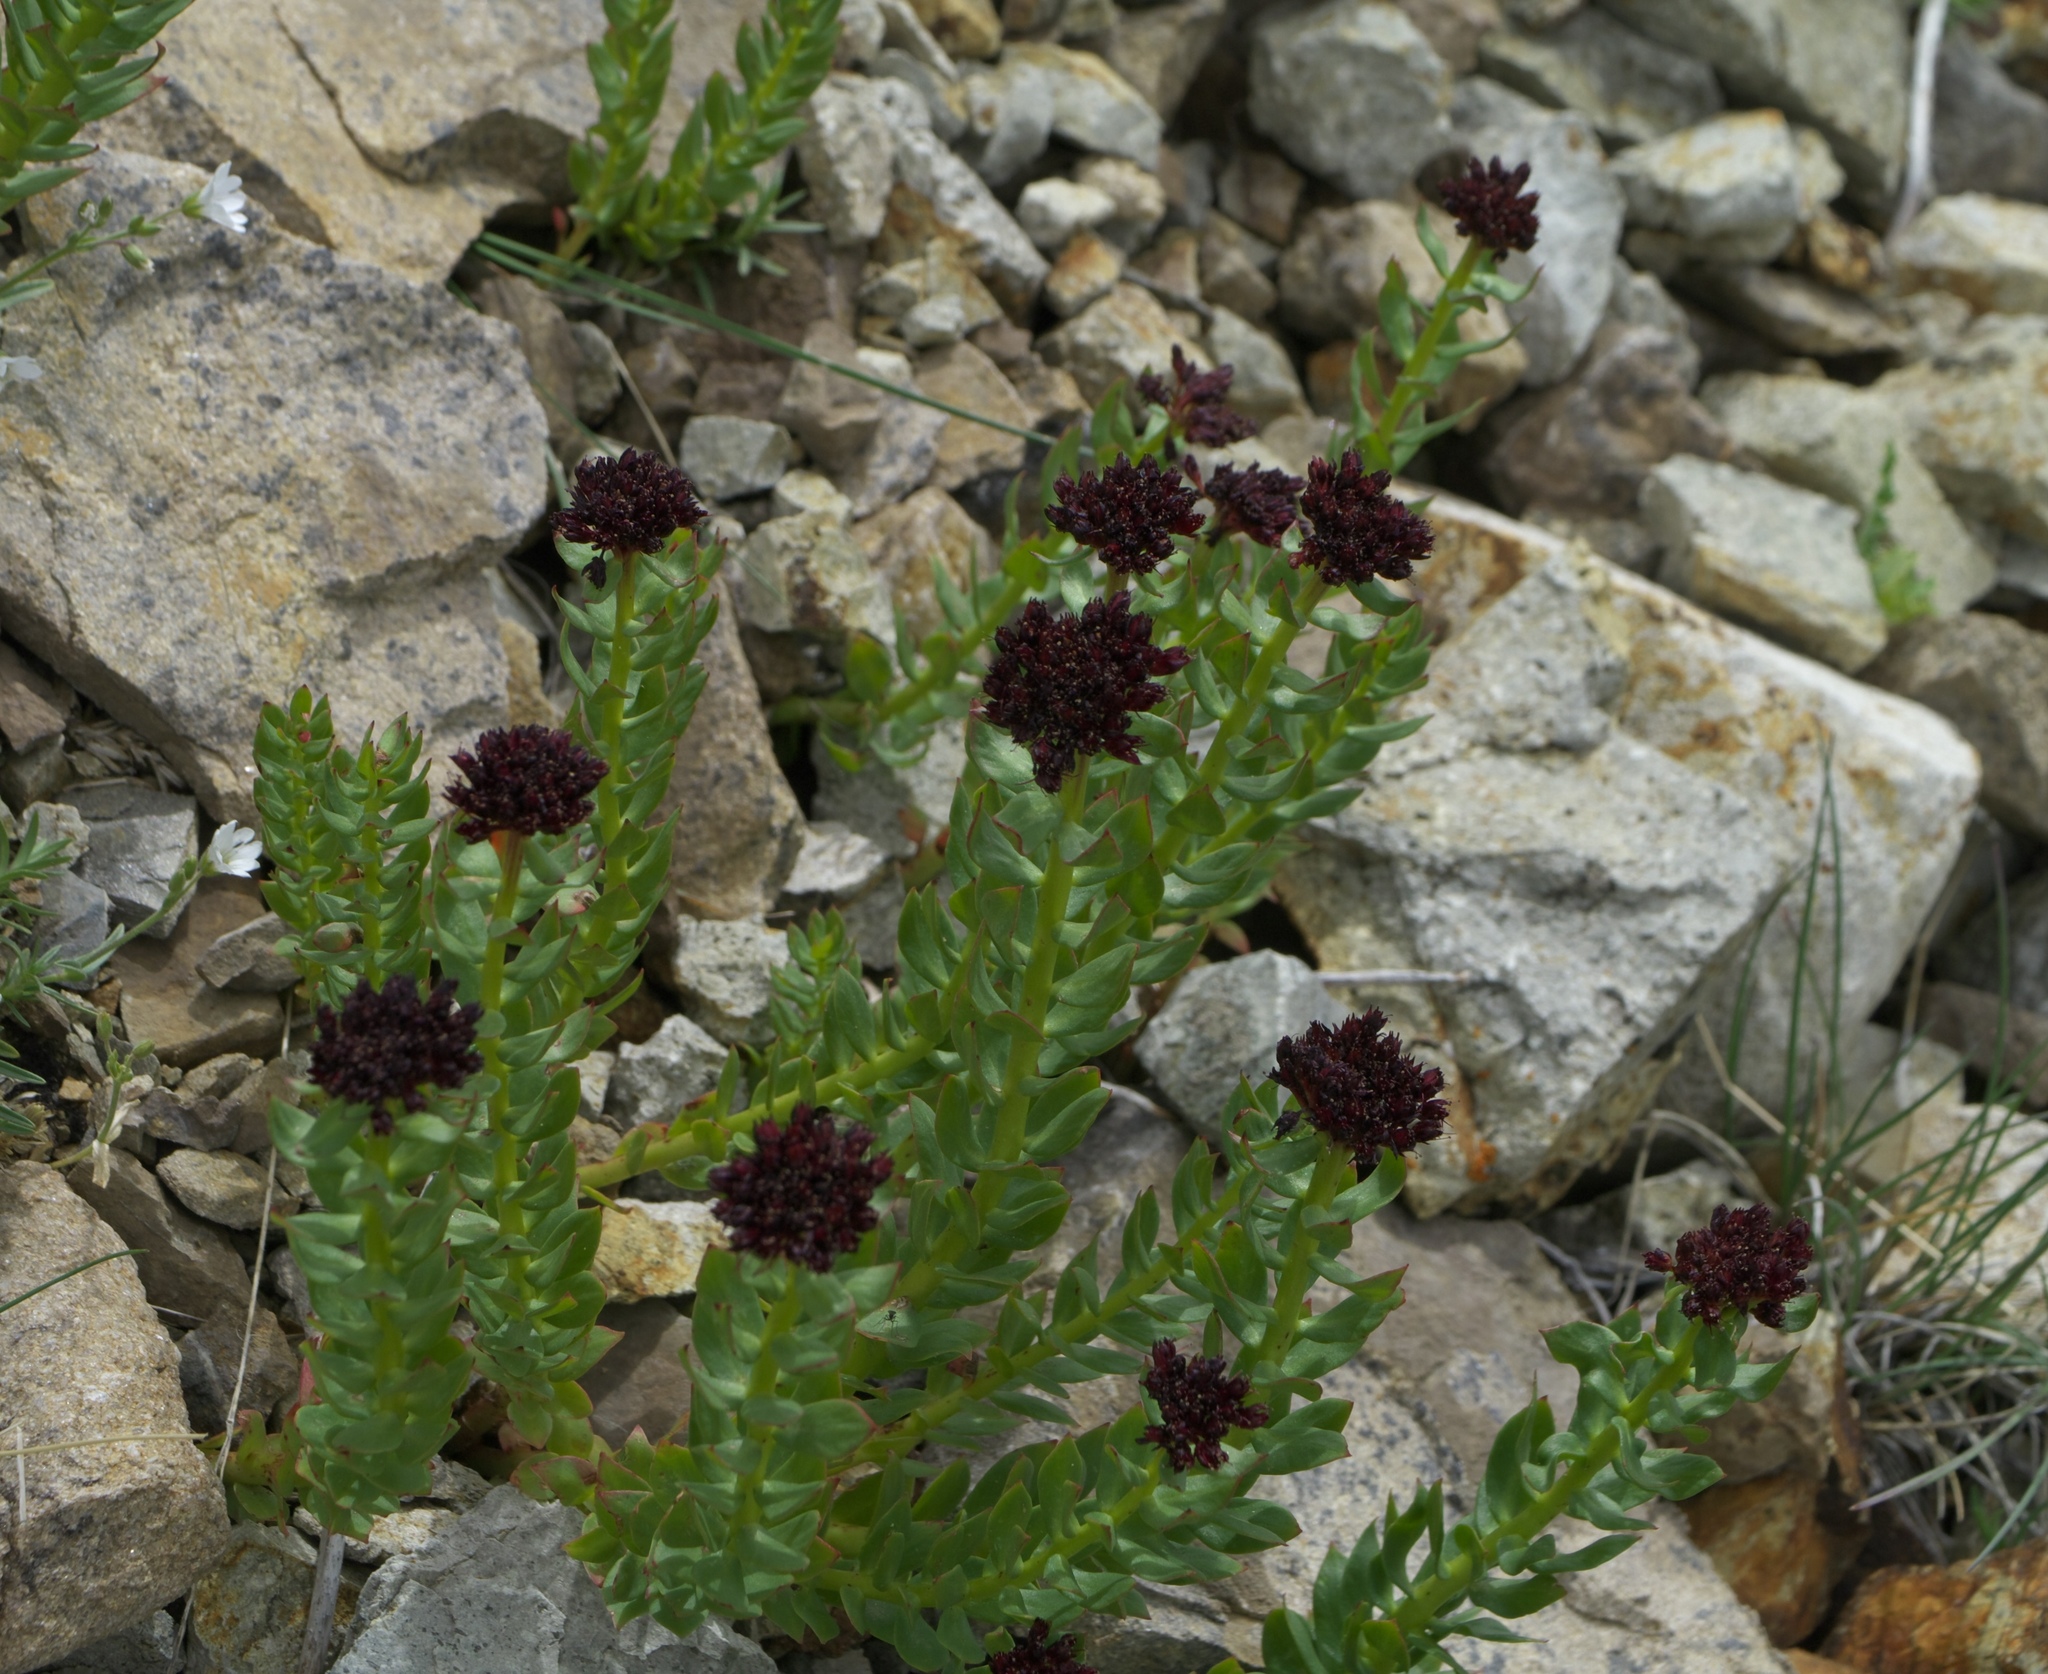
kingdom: Plantae
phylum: Tracheophyta
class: Magnoliopsida
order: Saxifragales
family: Crassulaceae
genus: Rhodiola
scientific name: Rhodiola integrifolia
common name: Western roseroot
